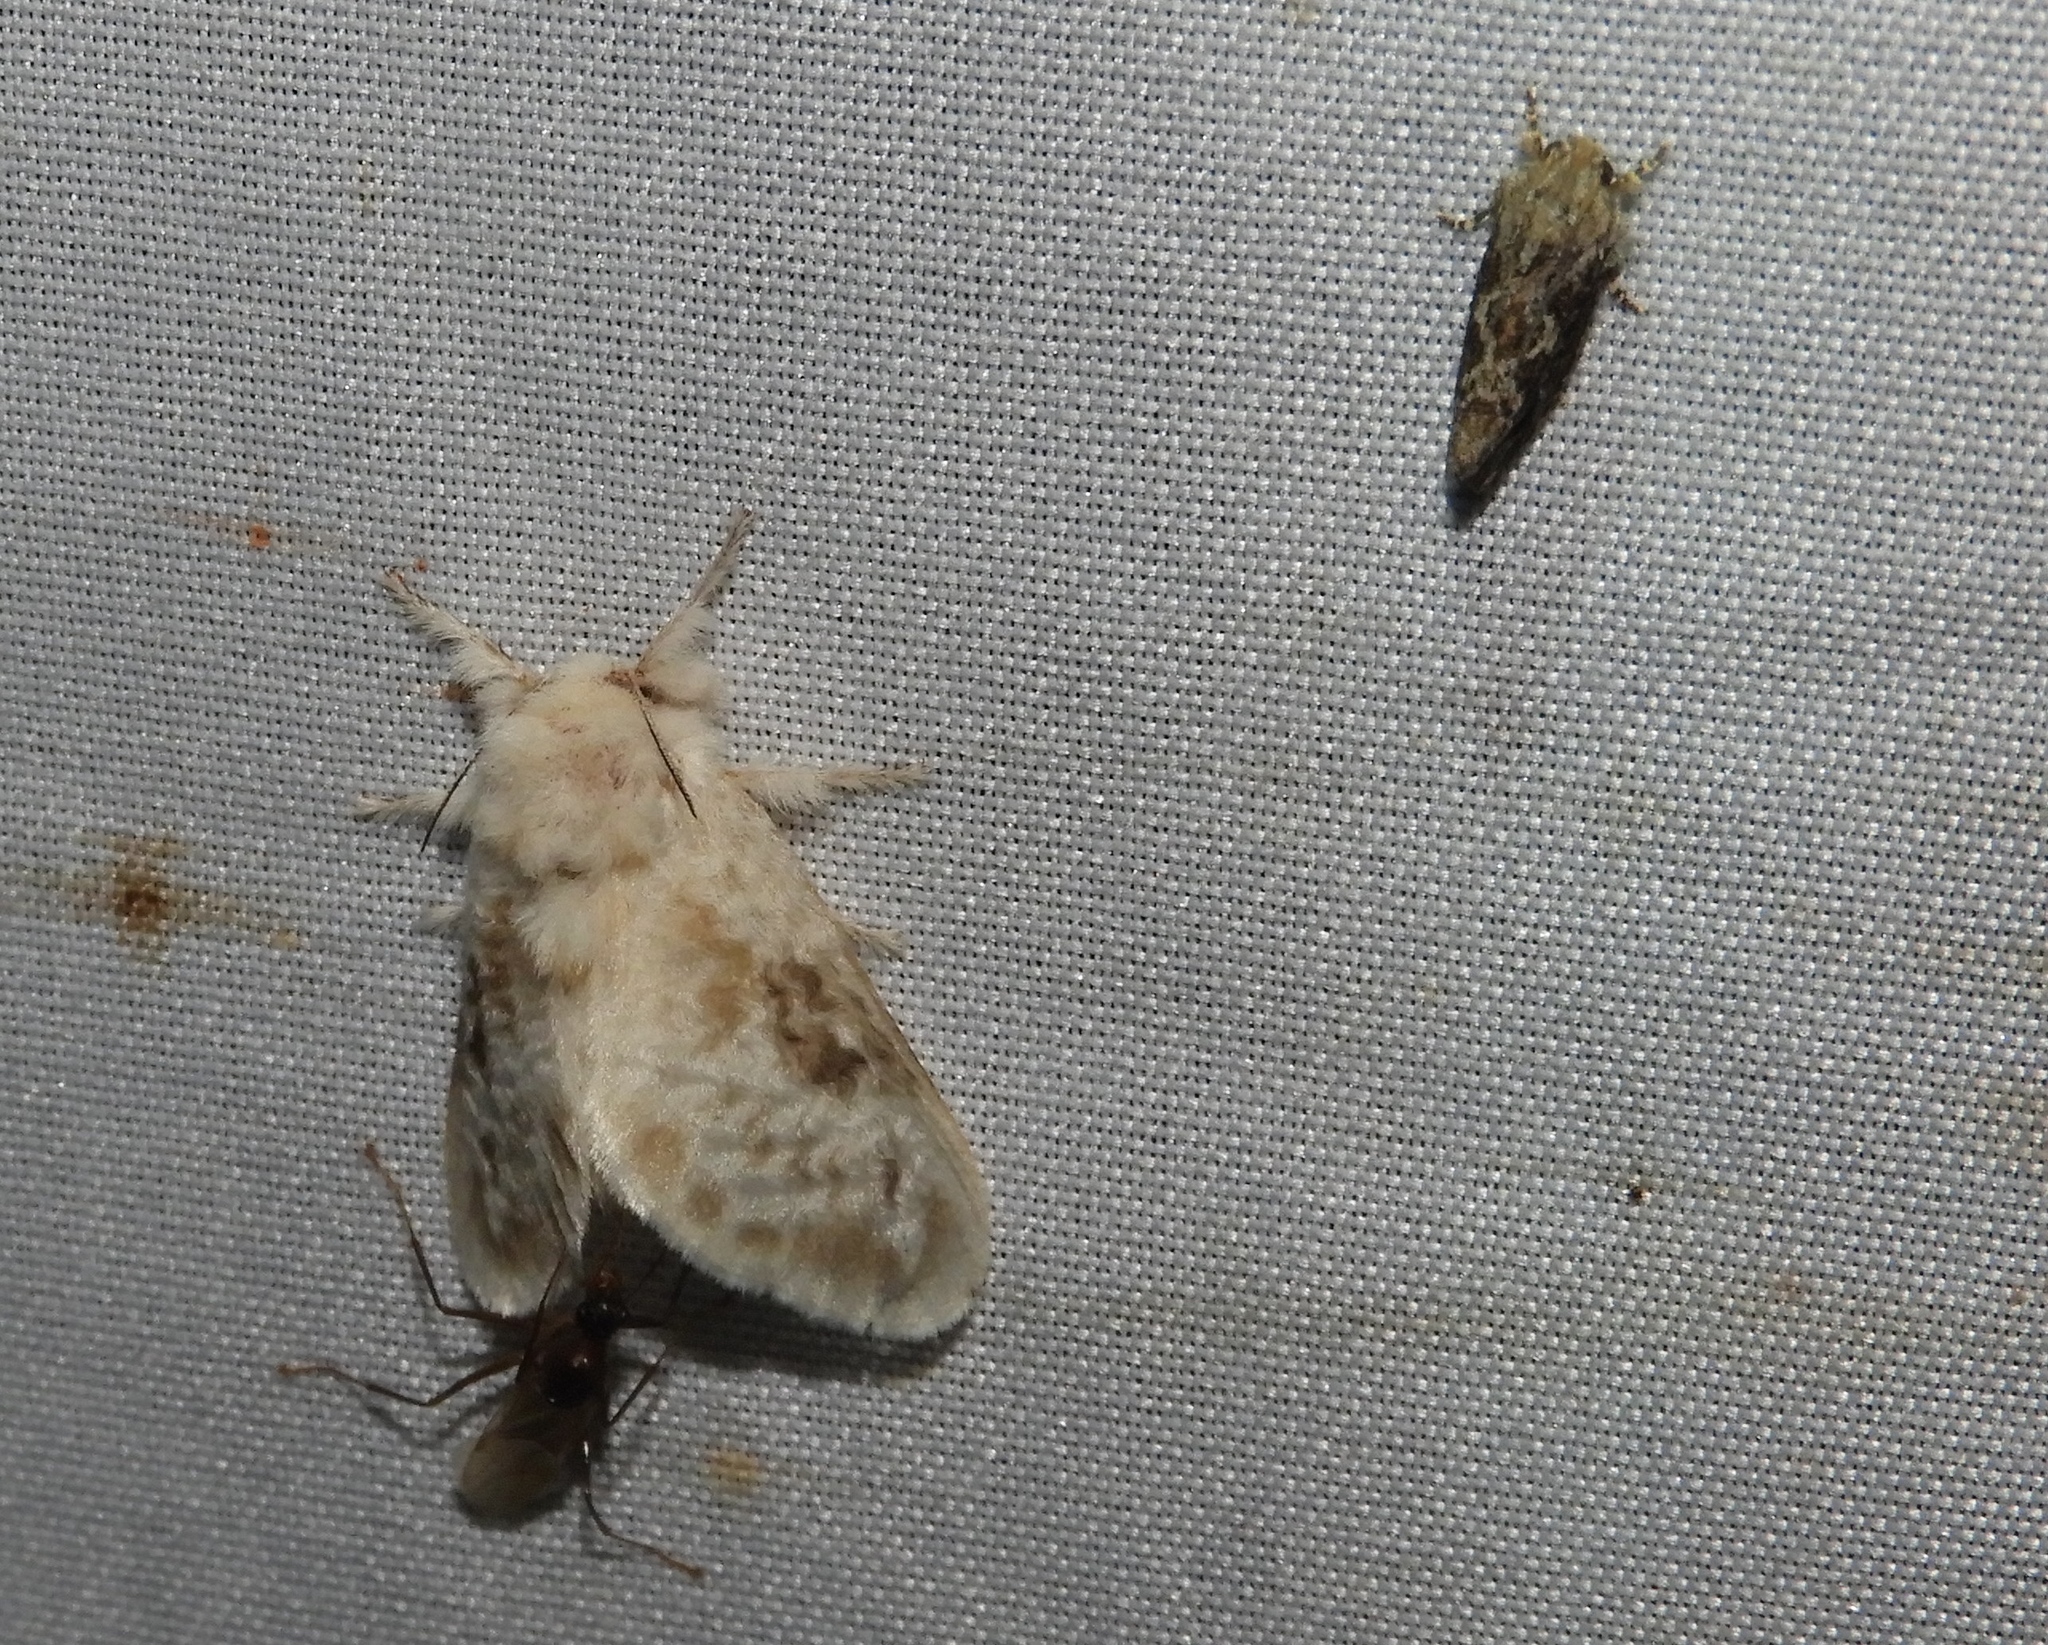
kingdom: Animalia
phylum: Arthropoda
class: Insecta
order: Lepidoptera
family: Megalopygidae
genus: Megalopyge
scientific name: Megalopyge ravida
